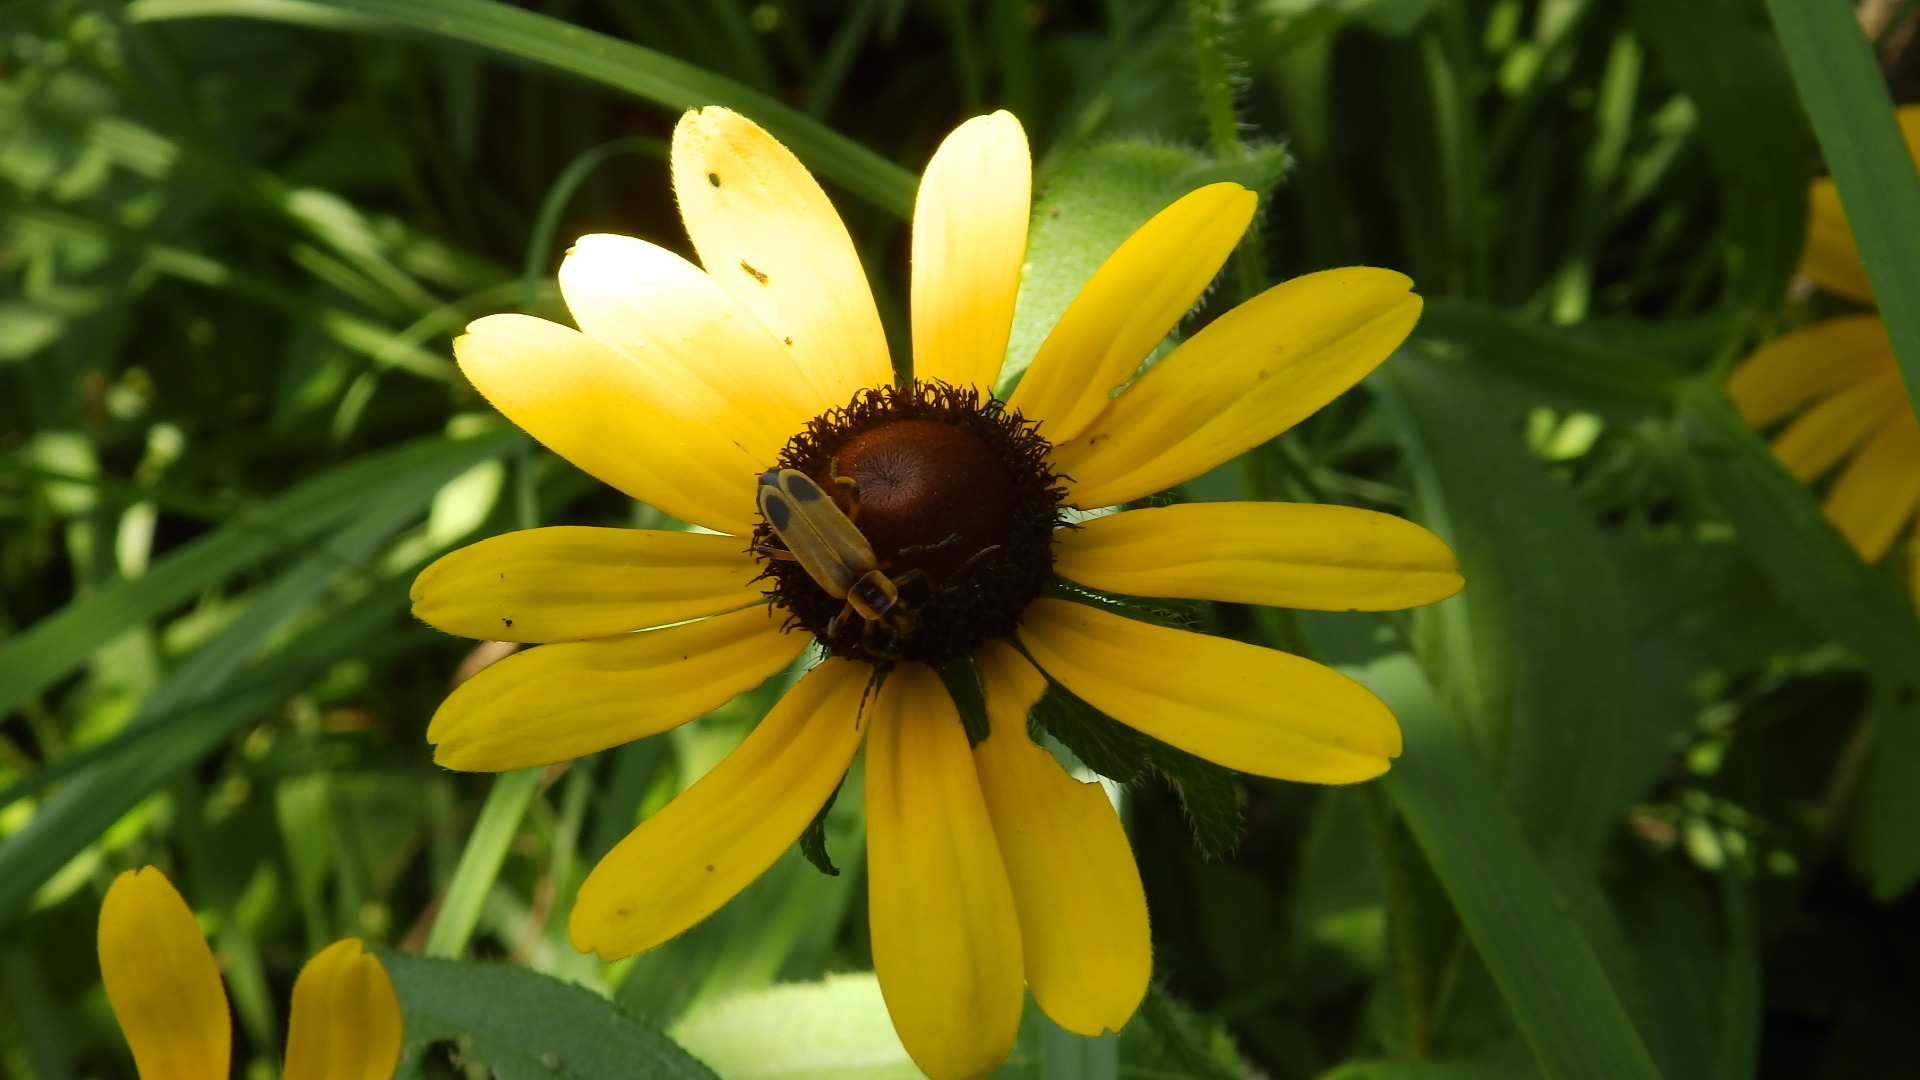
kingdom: Animalia
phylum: Arthropoda
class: Insecta
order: Coleoptera
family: Cantharidae
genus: Chauliognathus
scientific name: Chauliognathus marginatus
